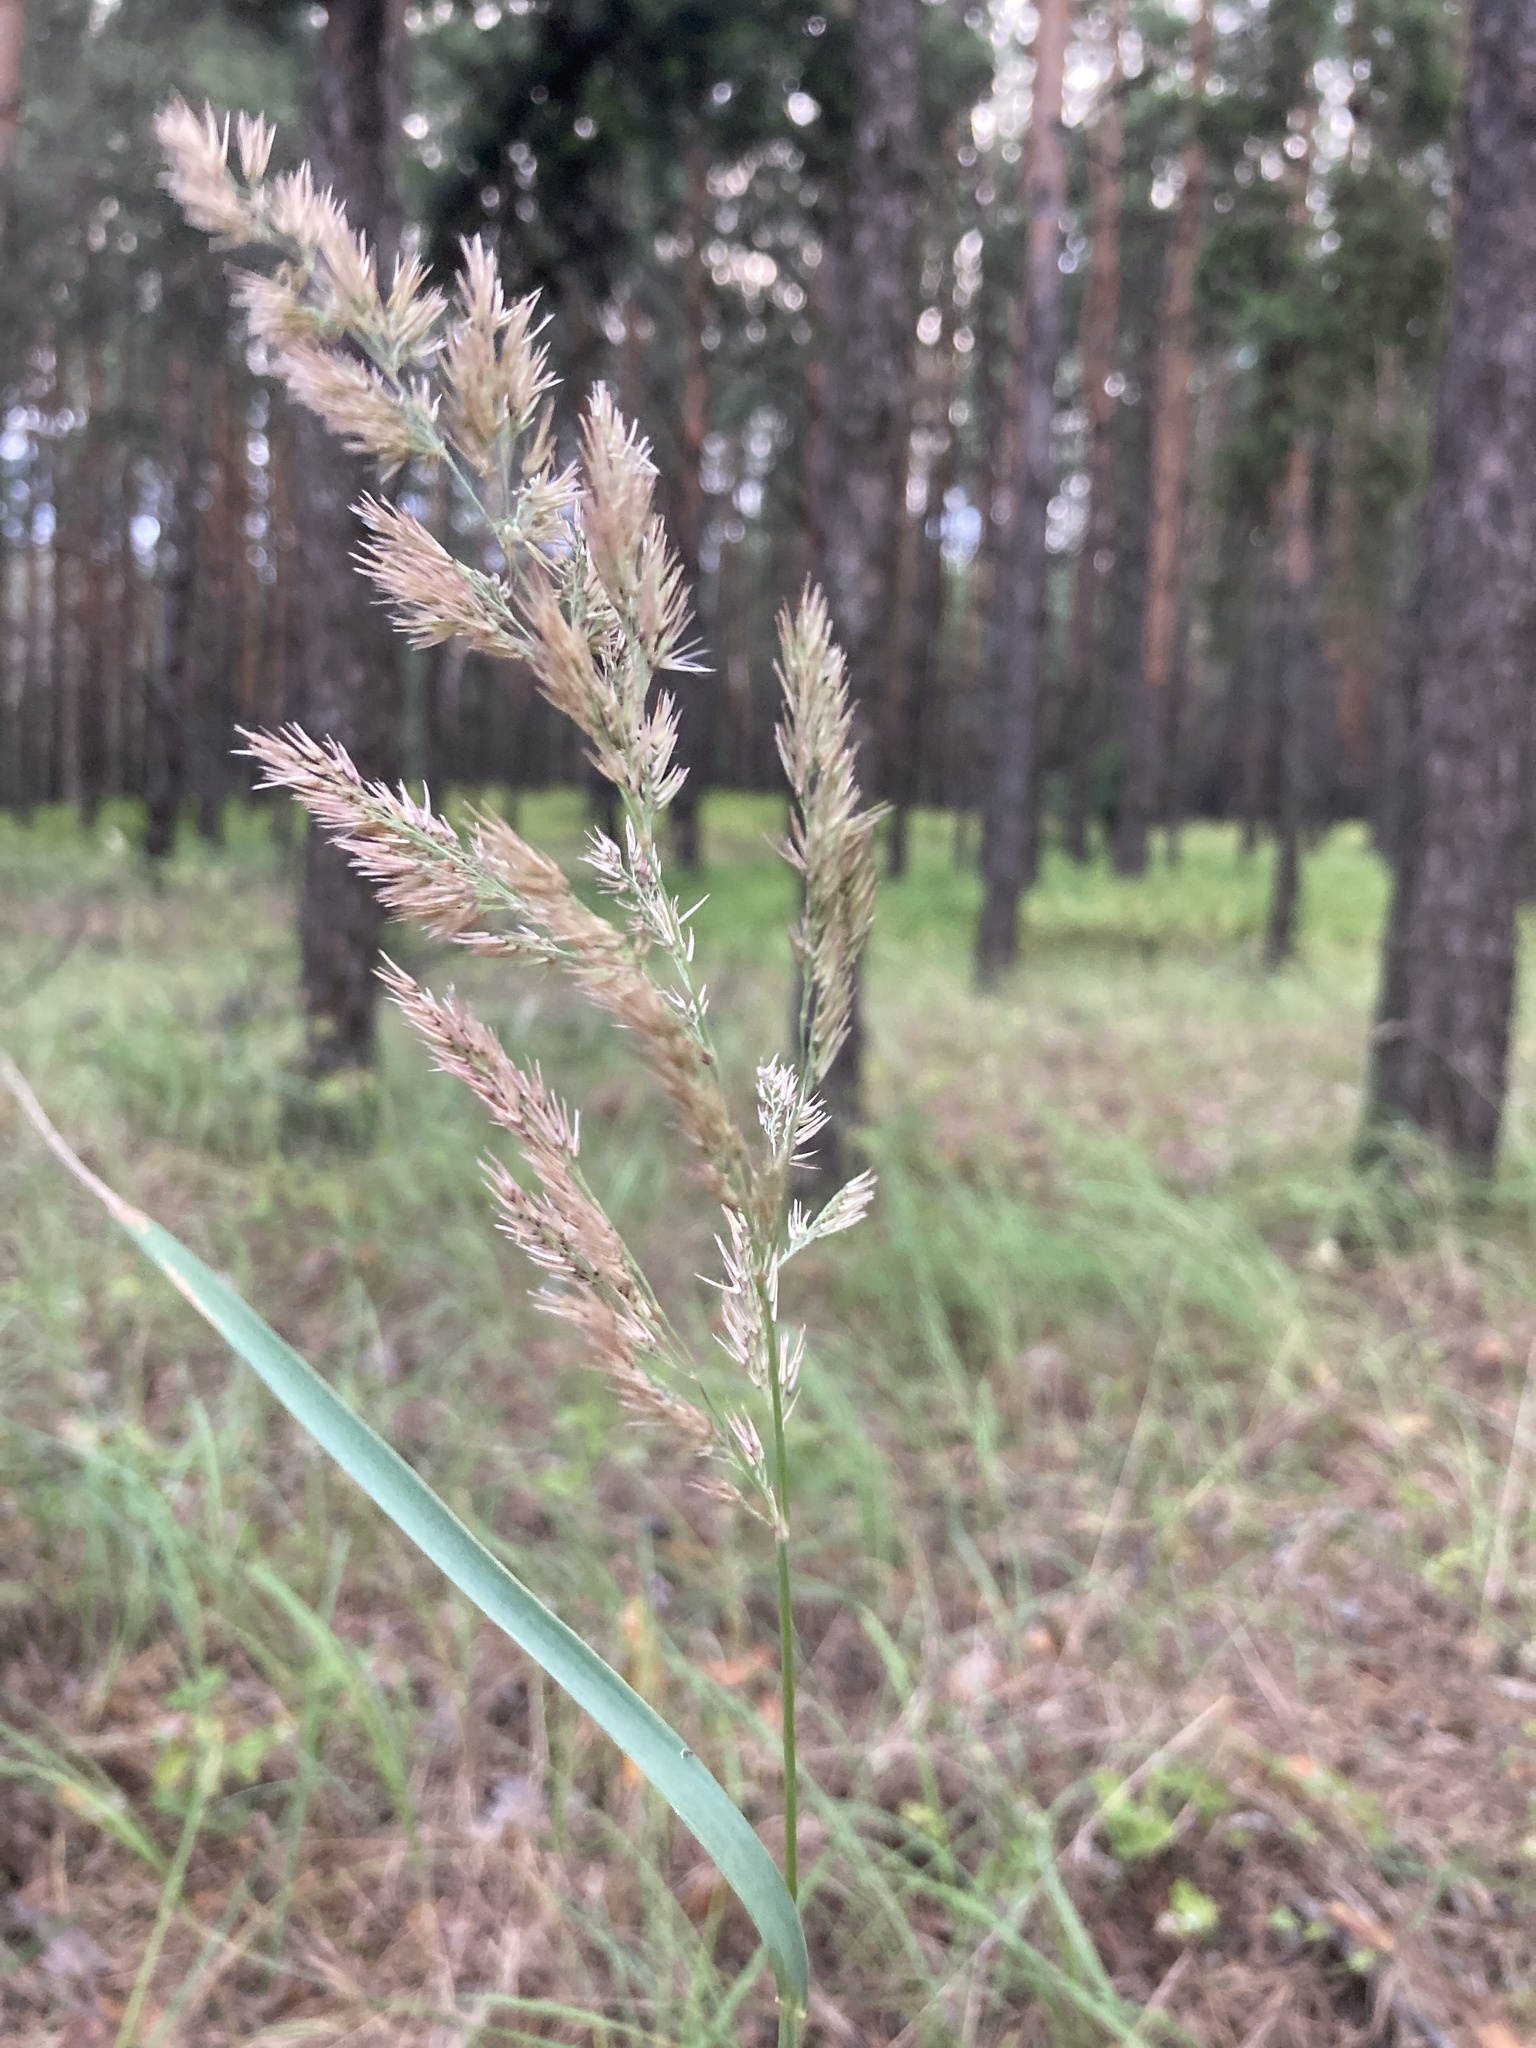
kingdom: Plantae
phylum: Tracheophyta
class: Liliopsida
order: Poales
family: Poaceae
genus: Calamagrostis
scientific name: Calamagrostis epigejos
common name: Wood small-reed
